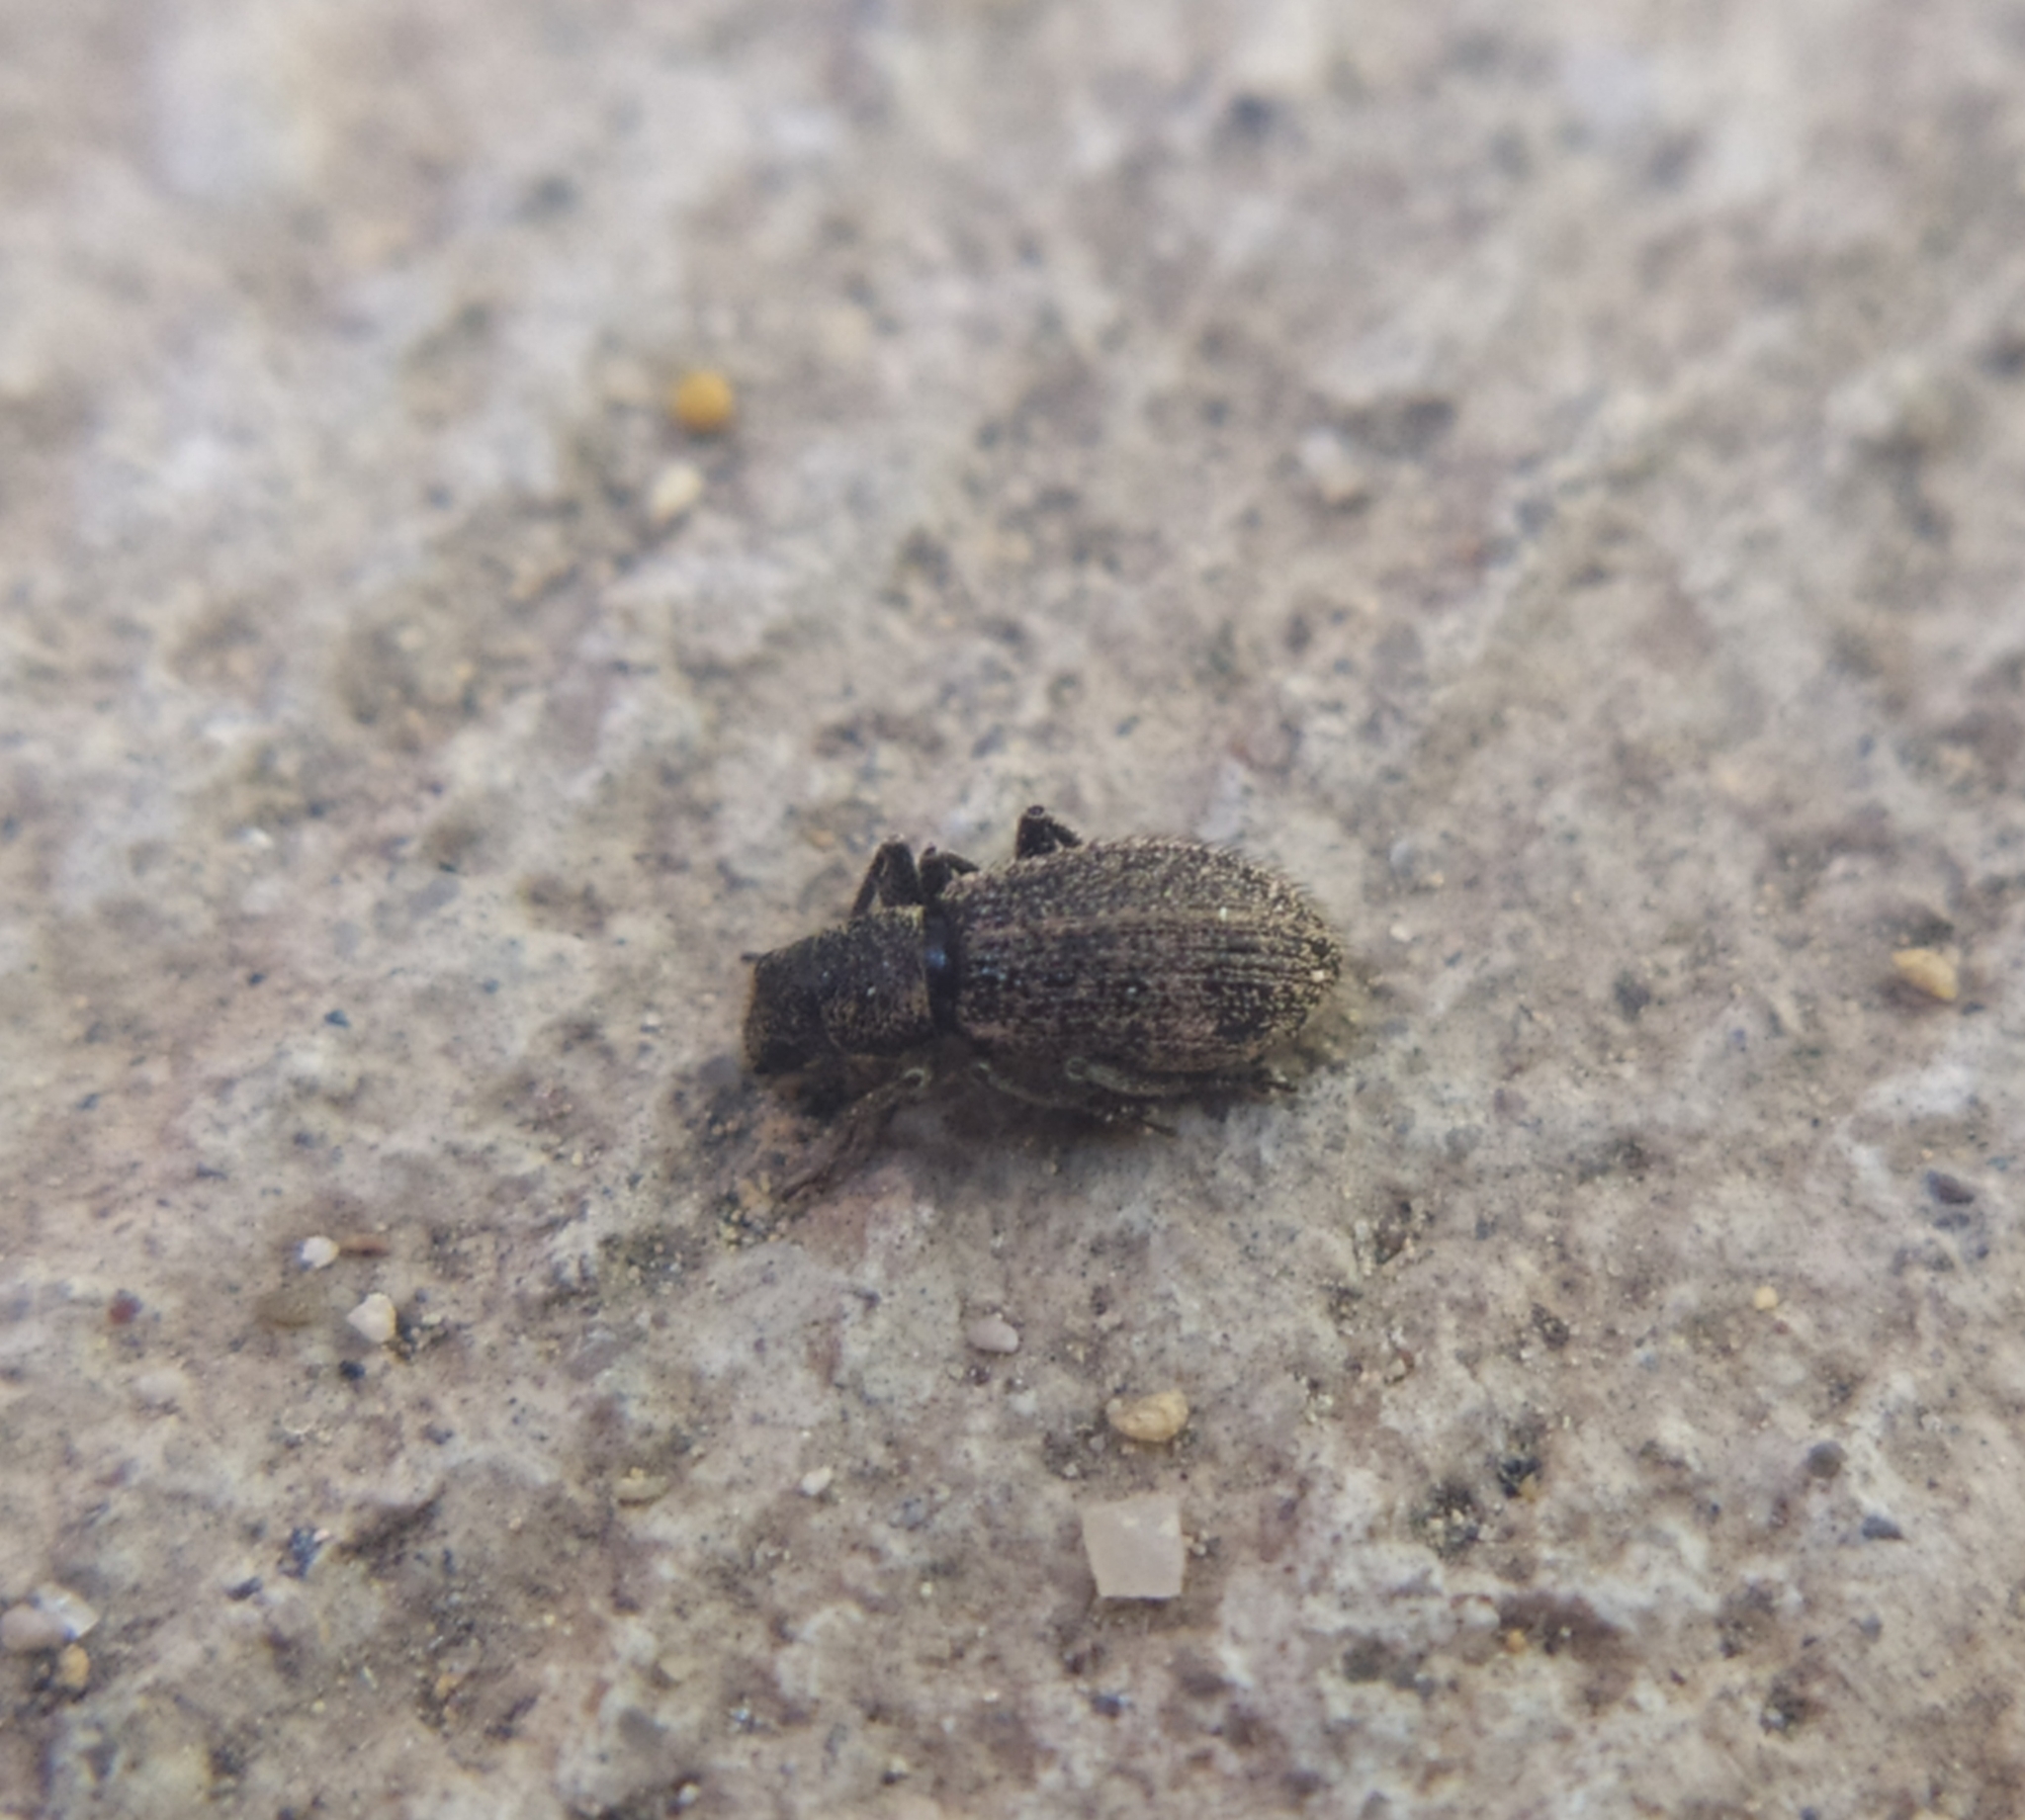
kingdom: Animalia
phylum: Arthropoda
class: Insecta
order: Coleoptera
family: Curculionidae
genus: Polydrusus
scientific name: Polydrusus inustus
